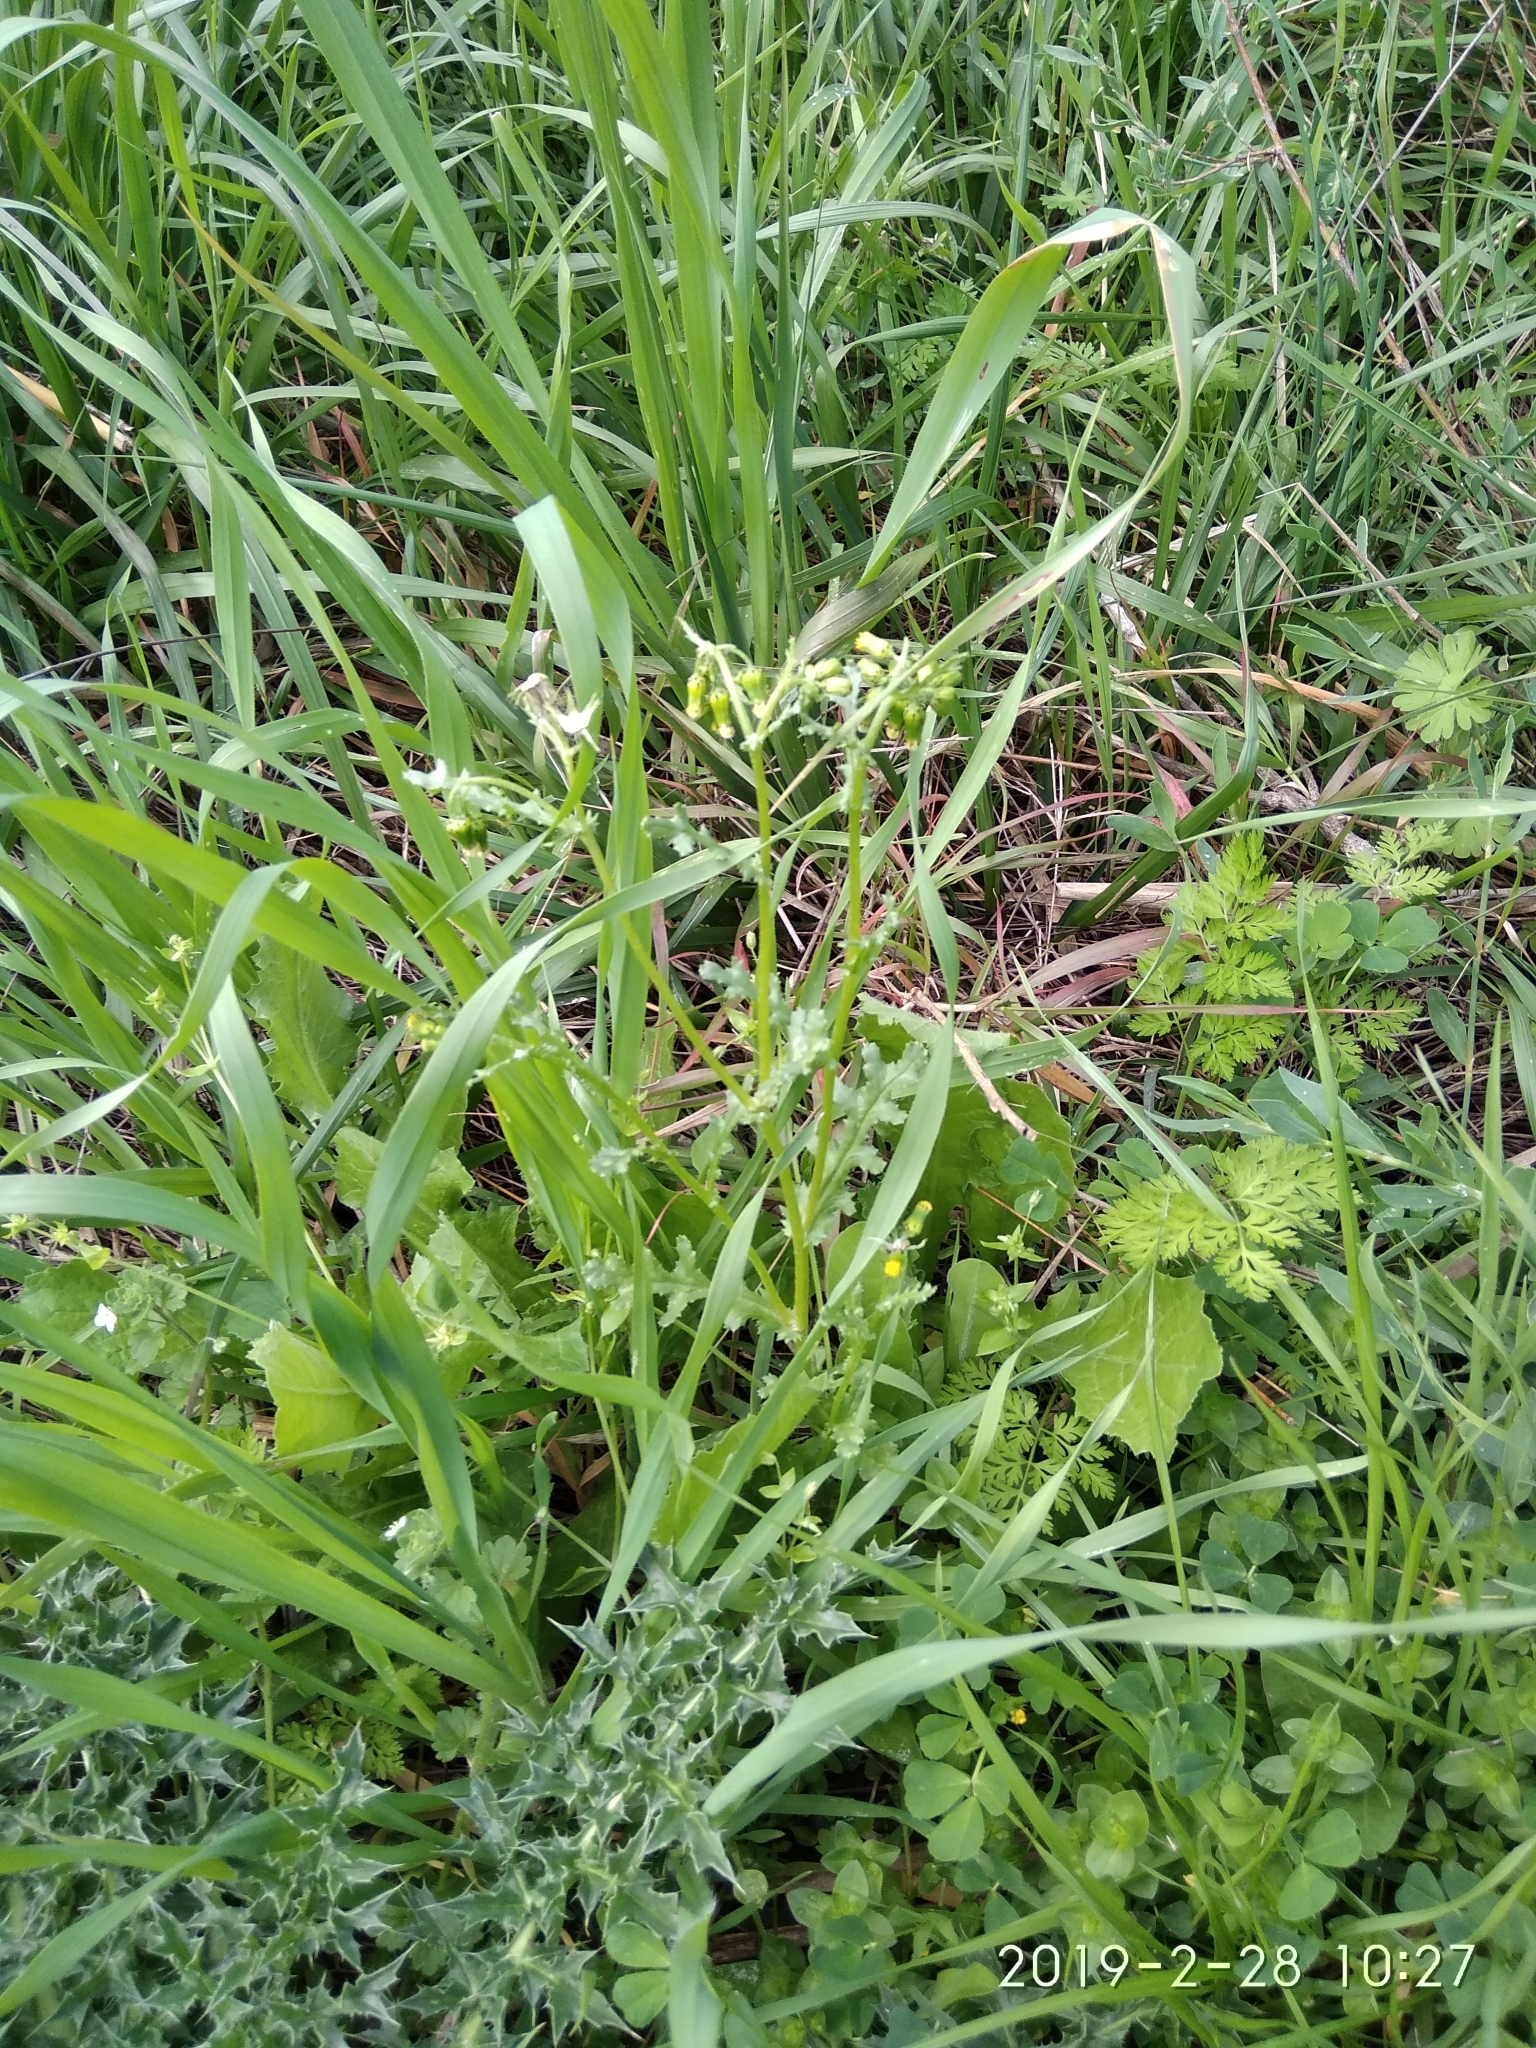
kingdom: Plantae
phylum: Tracheophyta
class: Magnoliopsida
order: Asterales
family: Asteraceae
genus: Senecio
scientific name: Senecio vulgaris
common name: Old-man-in-the-spring
